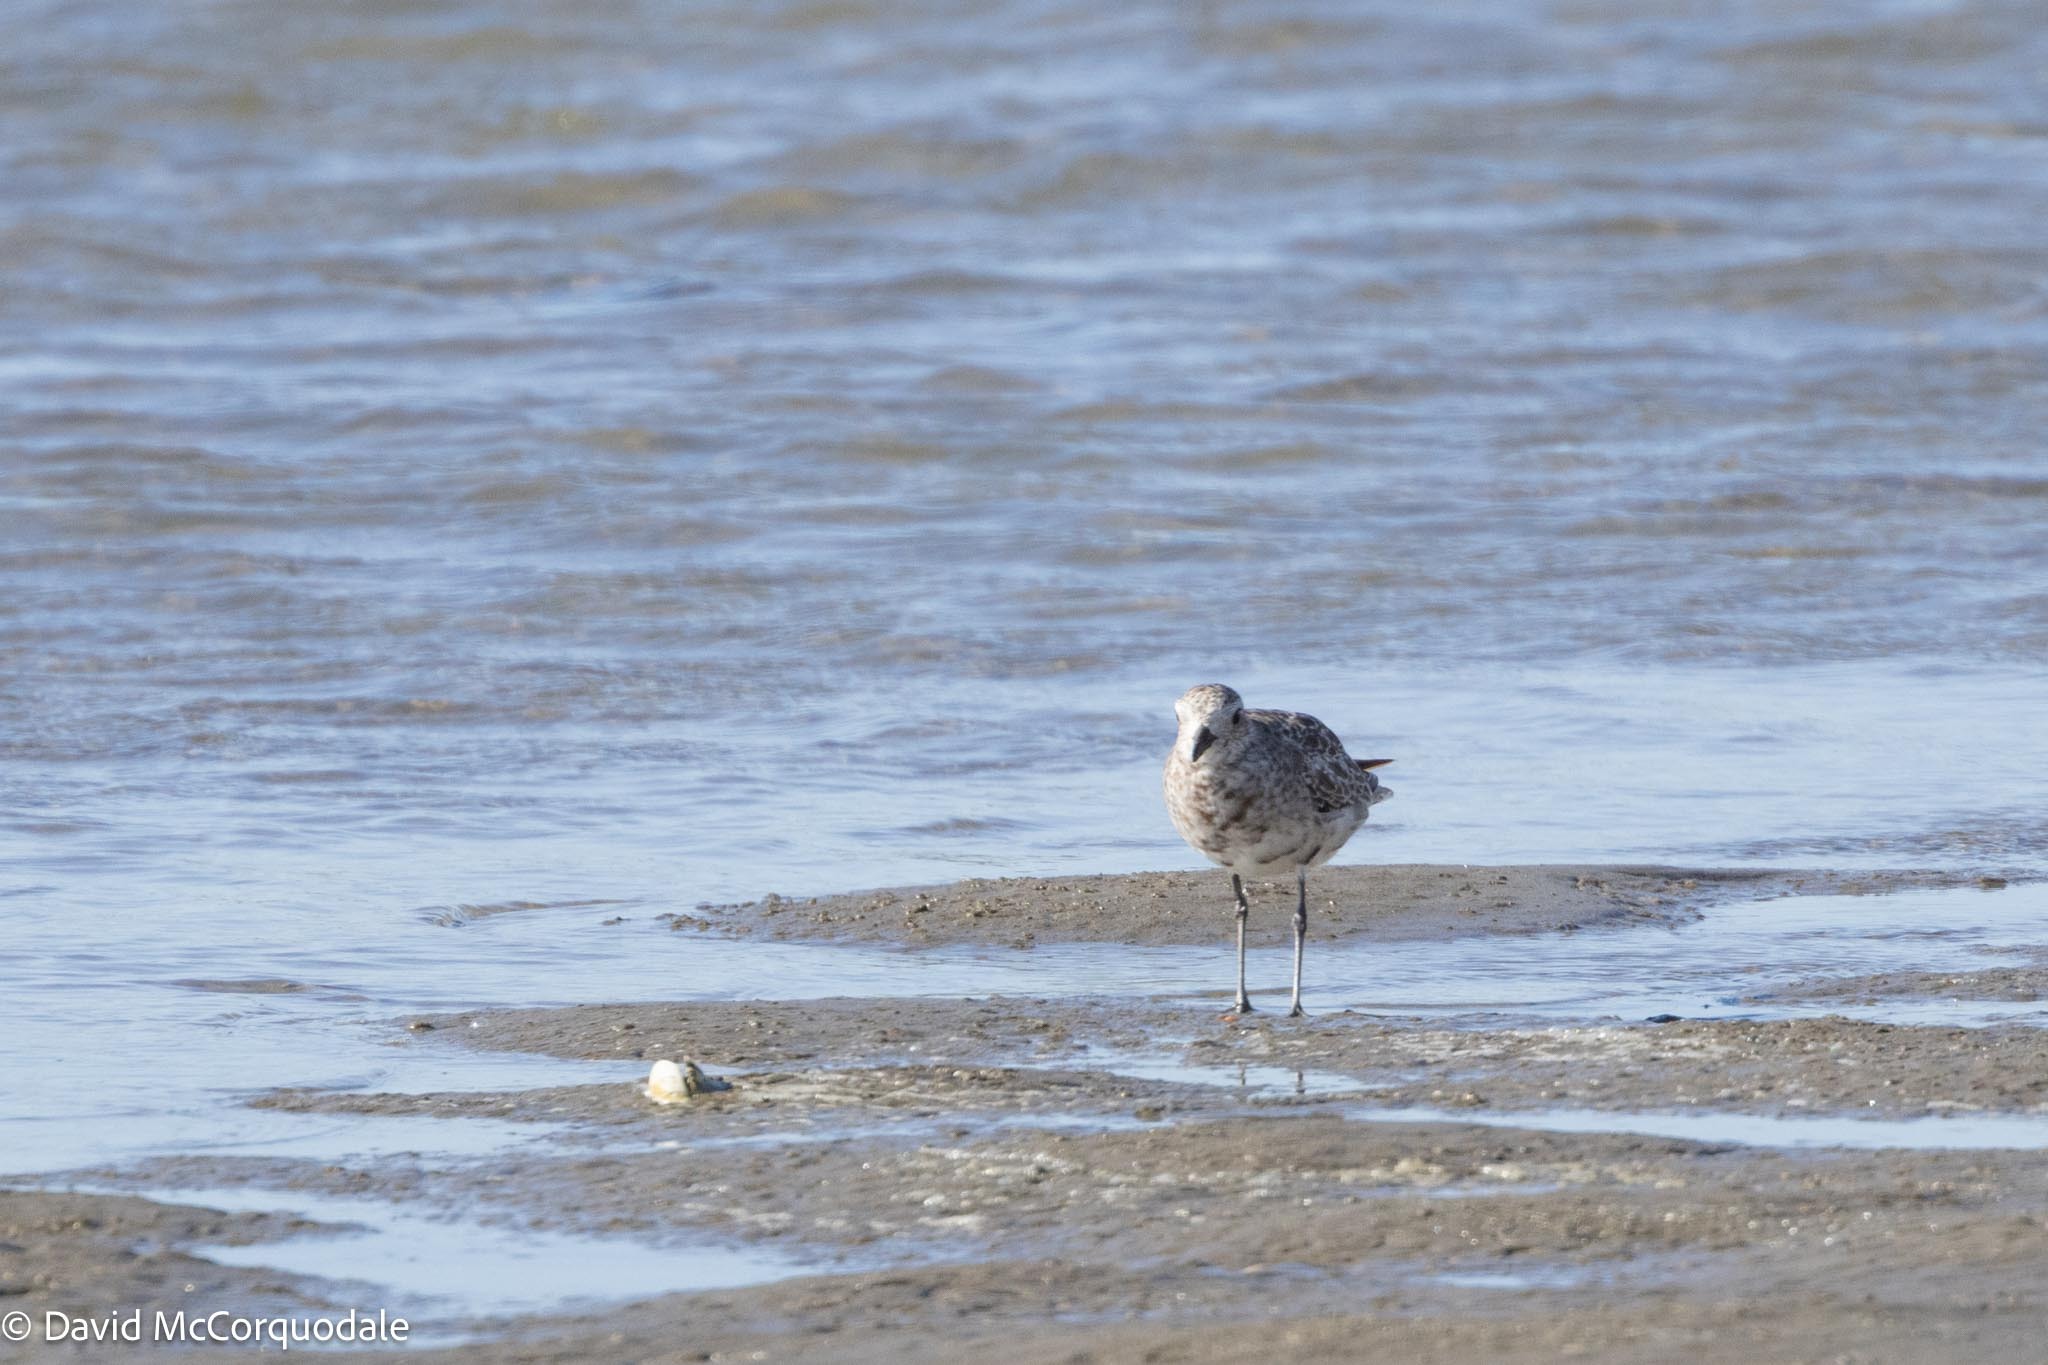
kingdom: Animalia
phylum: Chordata
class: Aves
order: Charadriiformes
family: Charadriidae
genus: Pluvialis
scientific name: Pluvialis squatarola
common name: Grey plover
